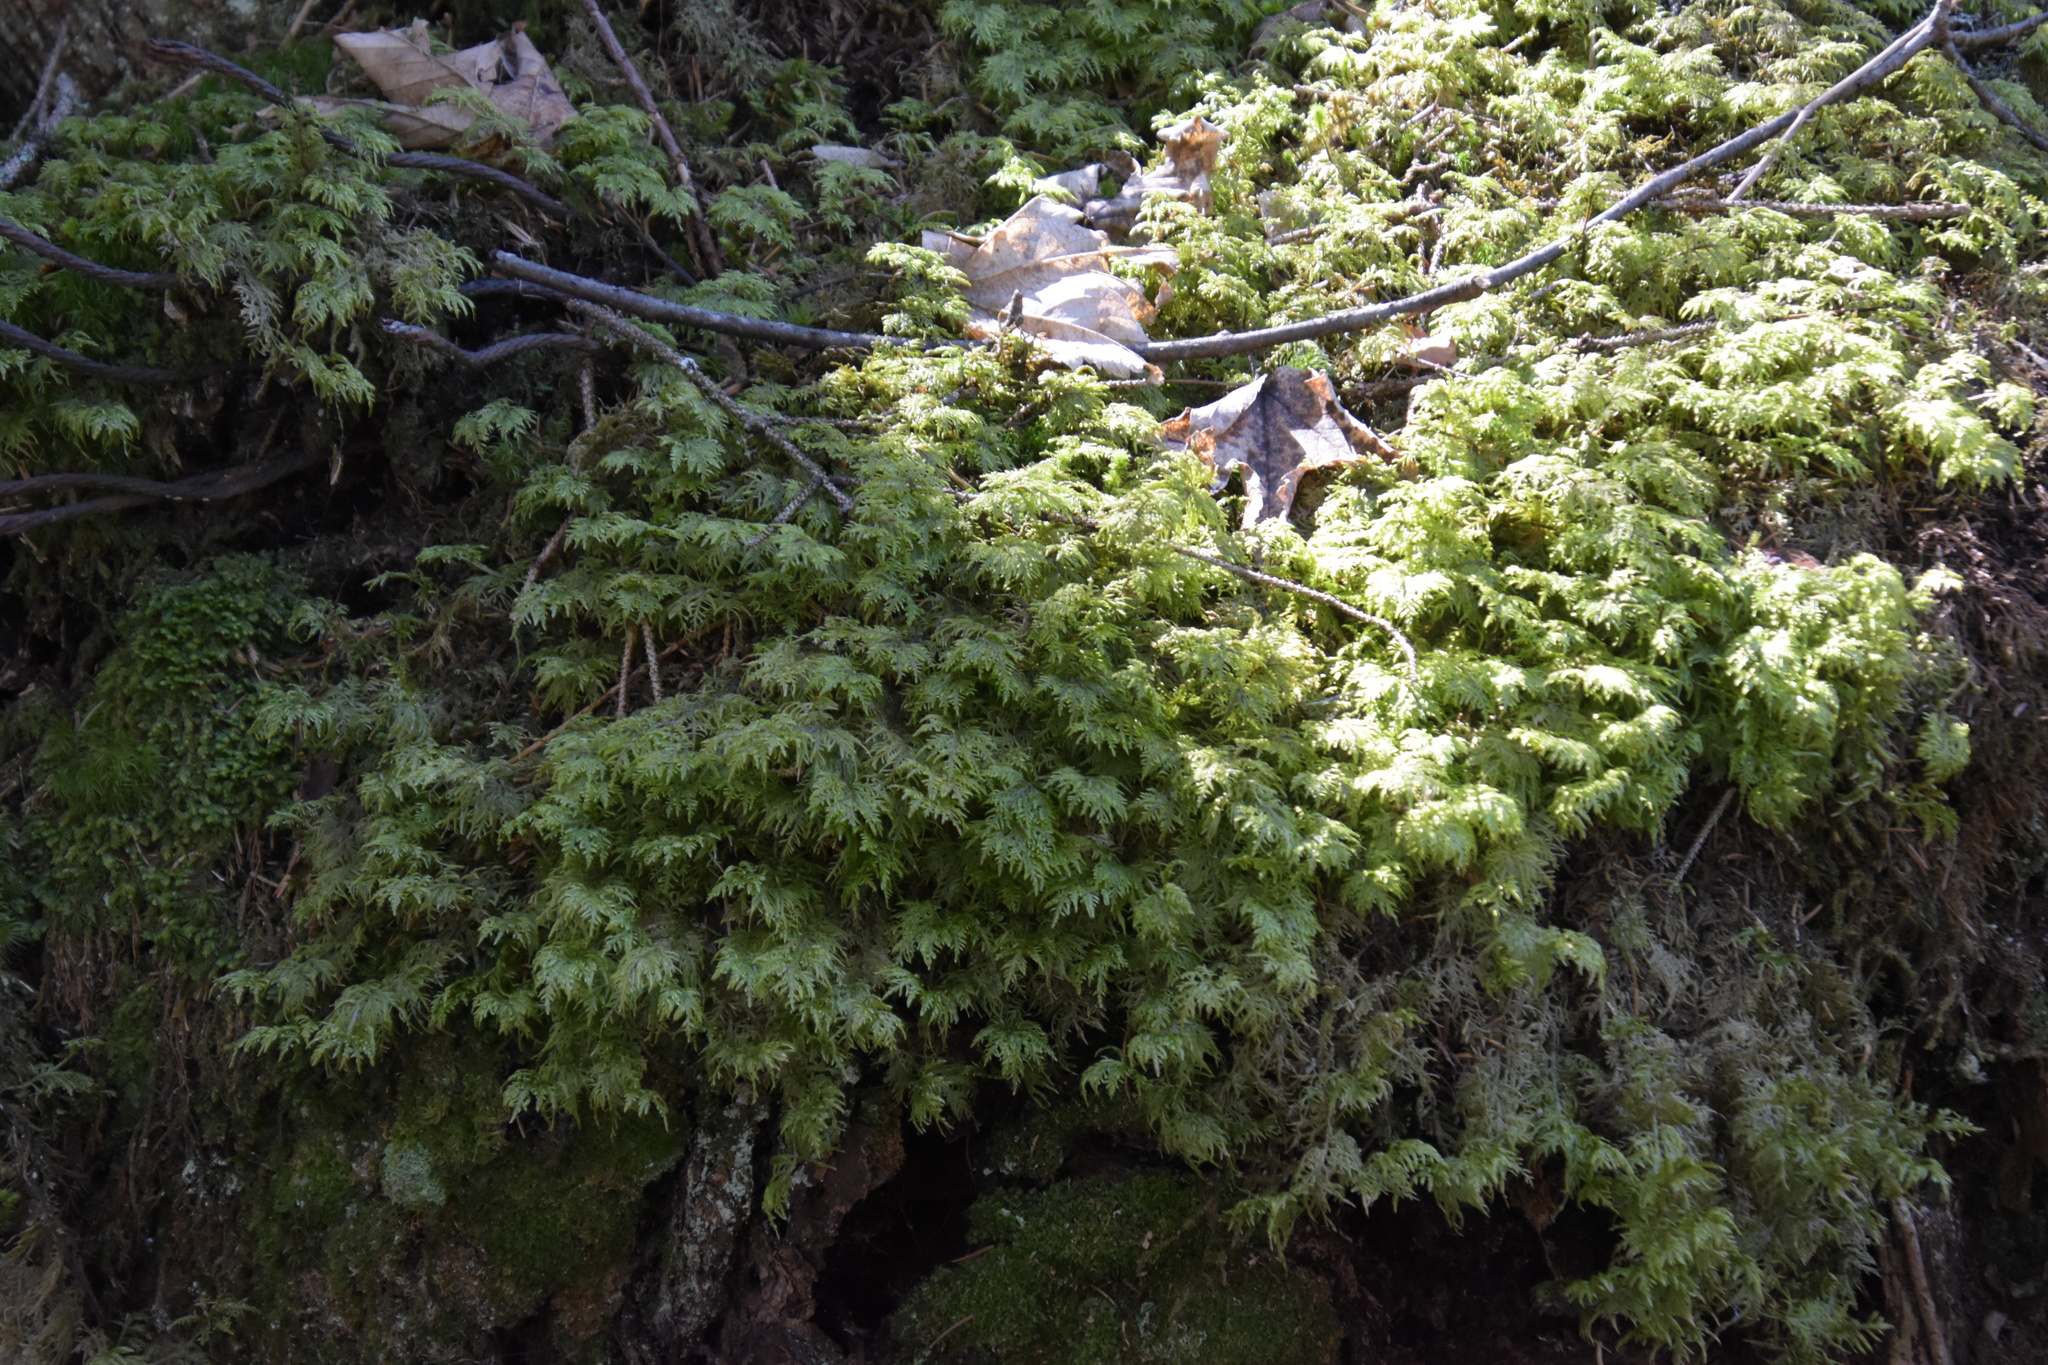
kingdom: Plantae
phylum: Bryophyta
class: Bryopsida
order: Hypnales
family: Hylocomiaceae
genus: Hylocomium
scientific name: Hylocomium splendens
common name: Stairstep moss
